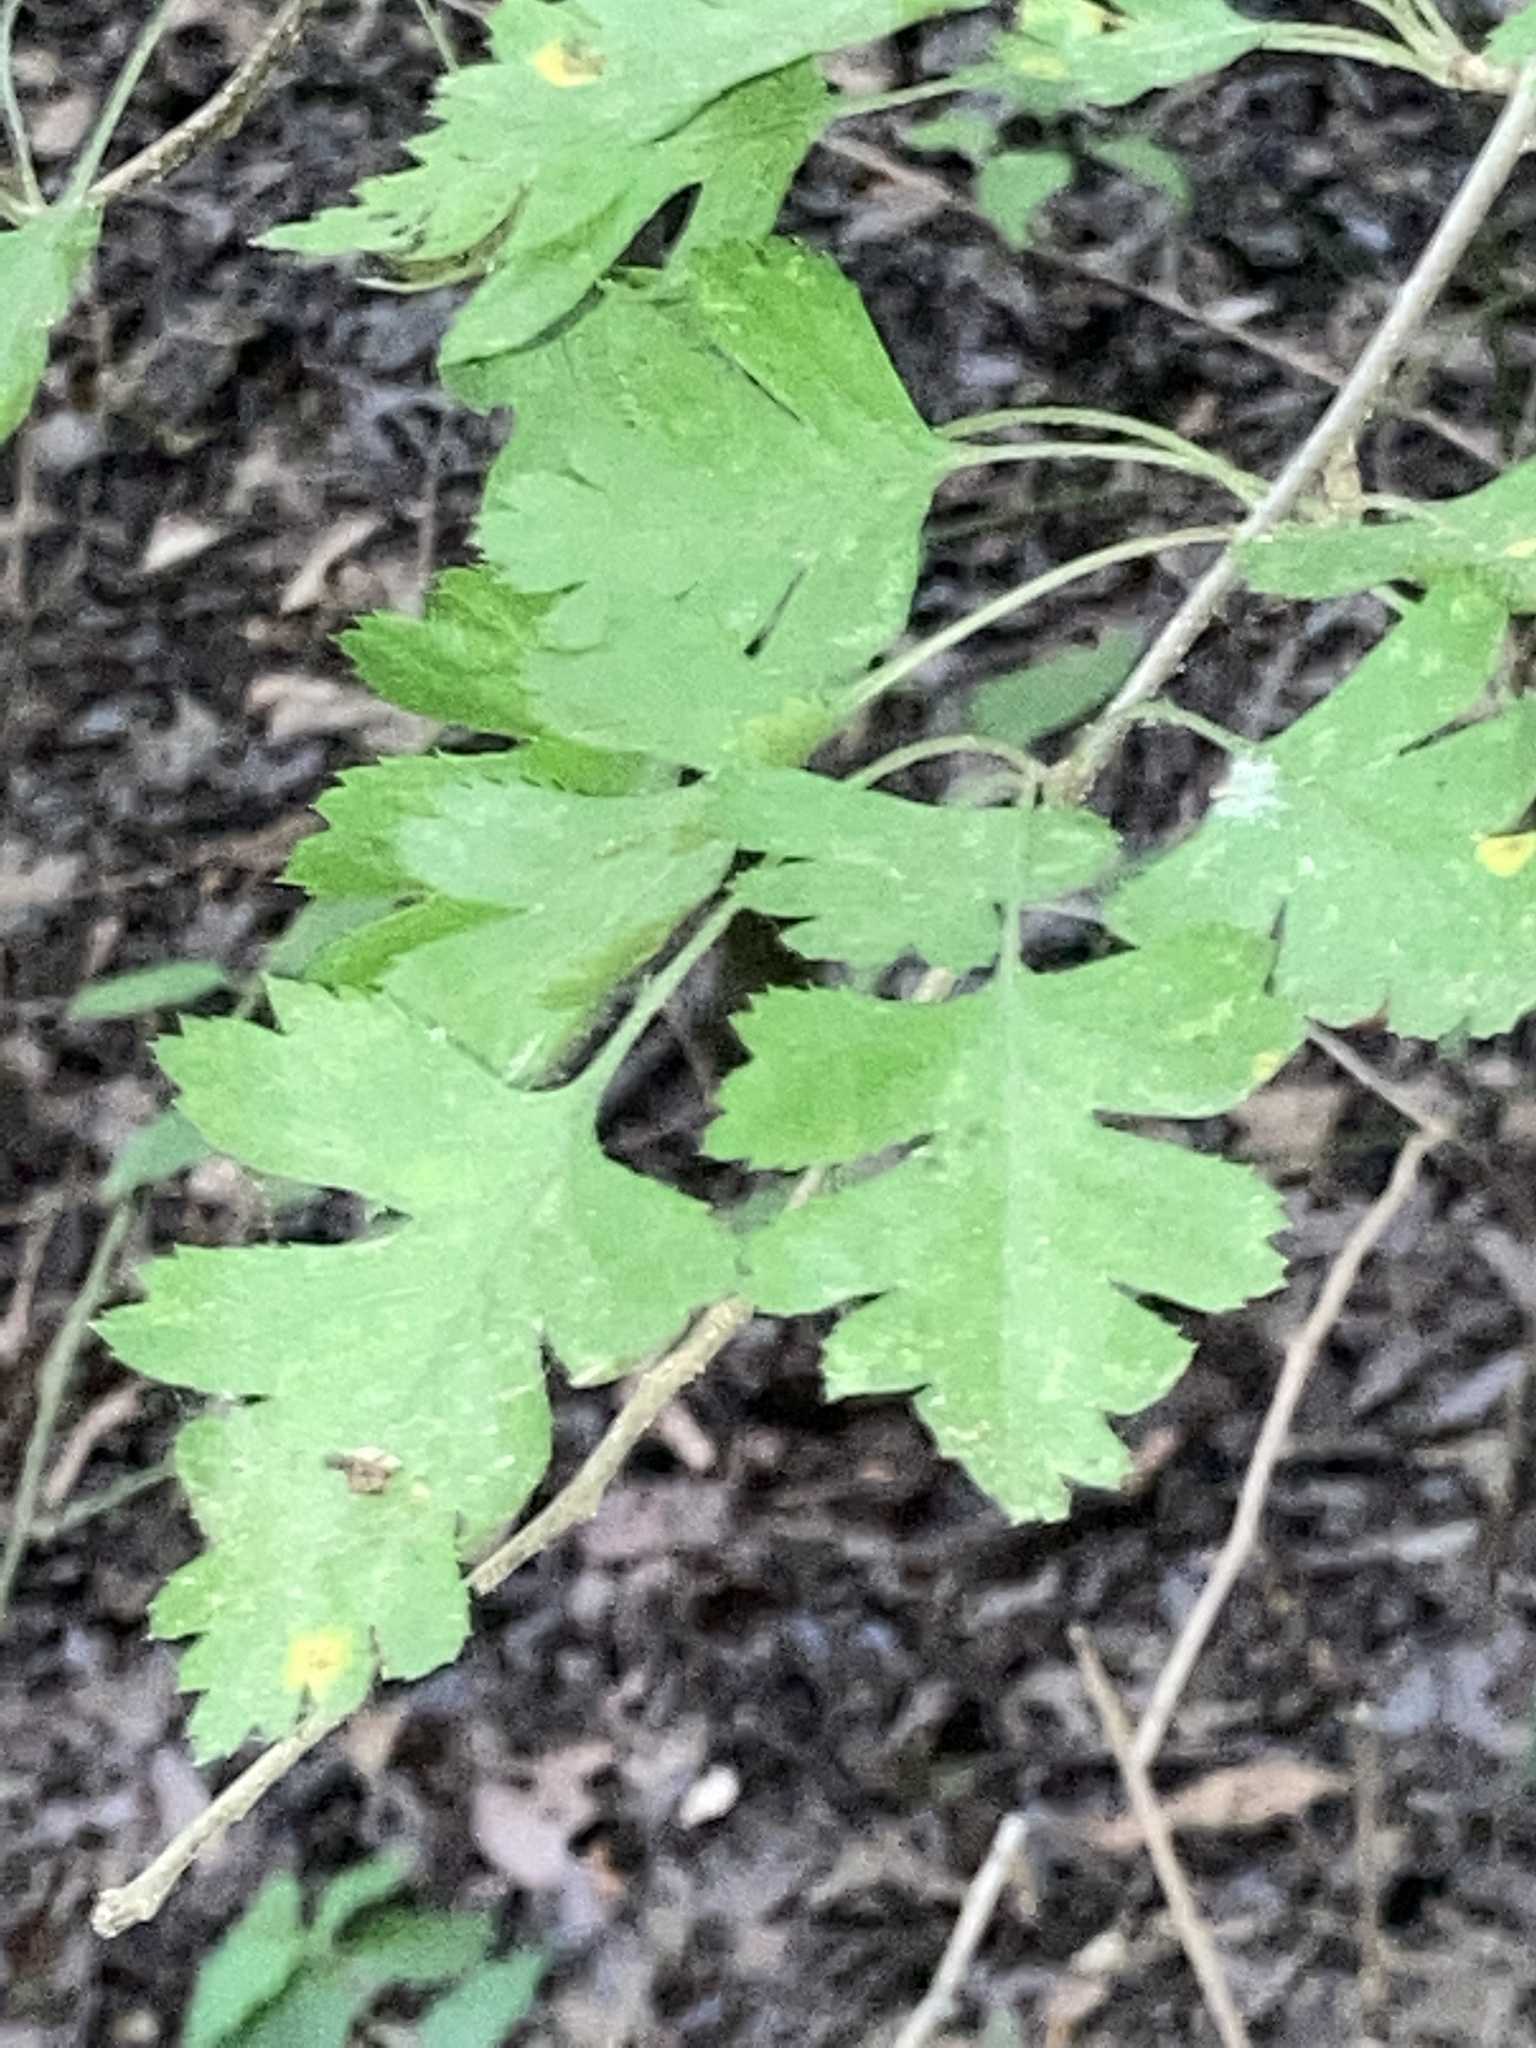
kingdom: Plantae
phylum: Tracheophyta
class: Magnoliopsida
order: Rosales
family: Rosaceae
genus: Crataegus
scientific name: Crataegus marshallii
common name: Parsley-hawthorn
